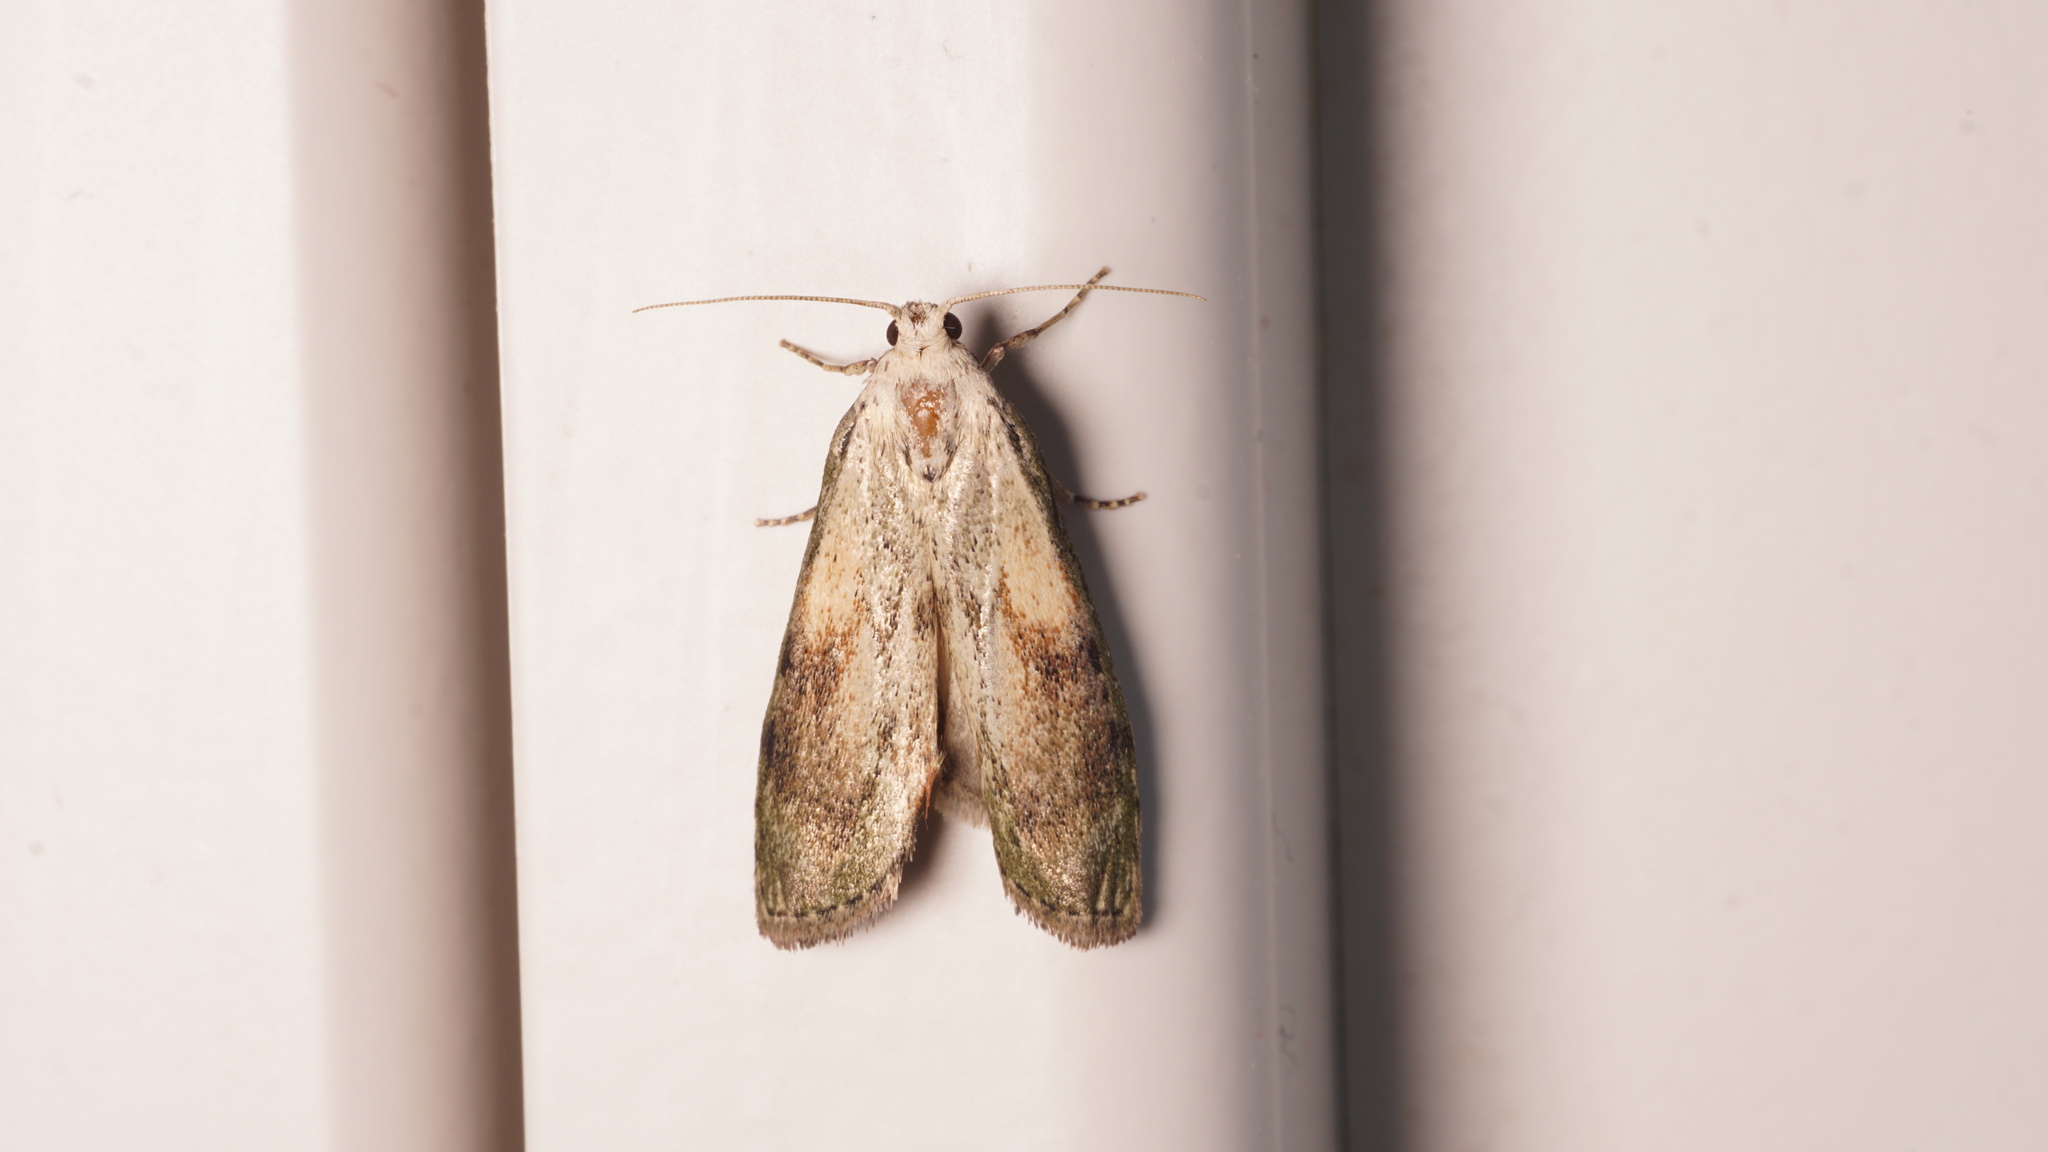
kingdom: Animalia
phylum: Arthropoda
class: Insecta
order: Lepidoptera
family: Pyralidae
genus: Aphomia
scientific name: Aphomia sociella
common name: Bee moth
